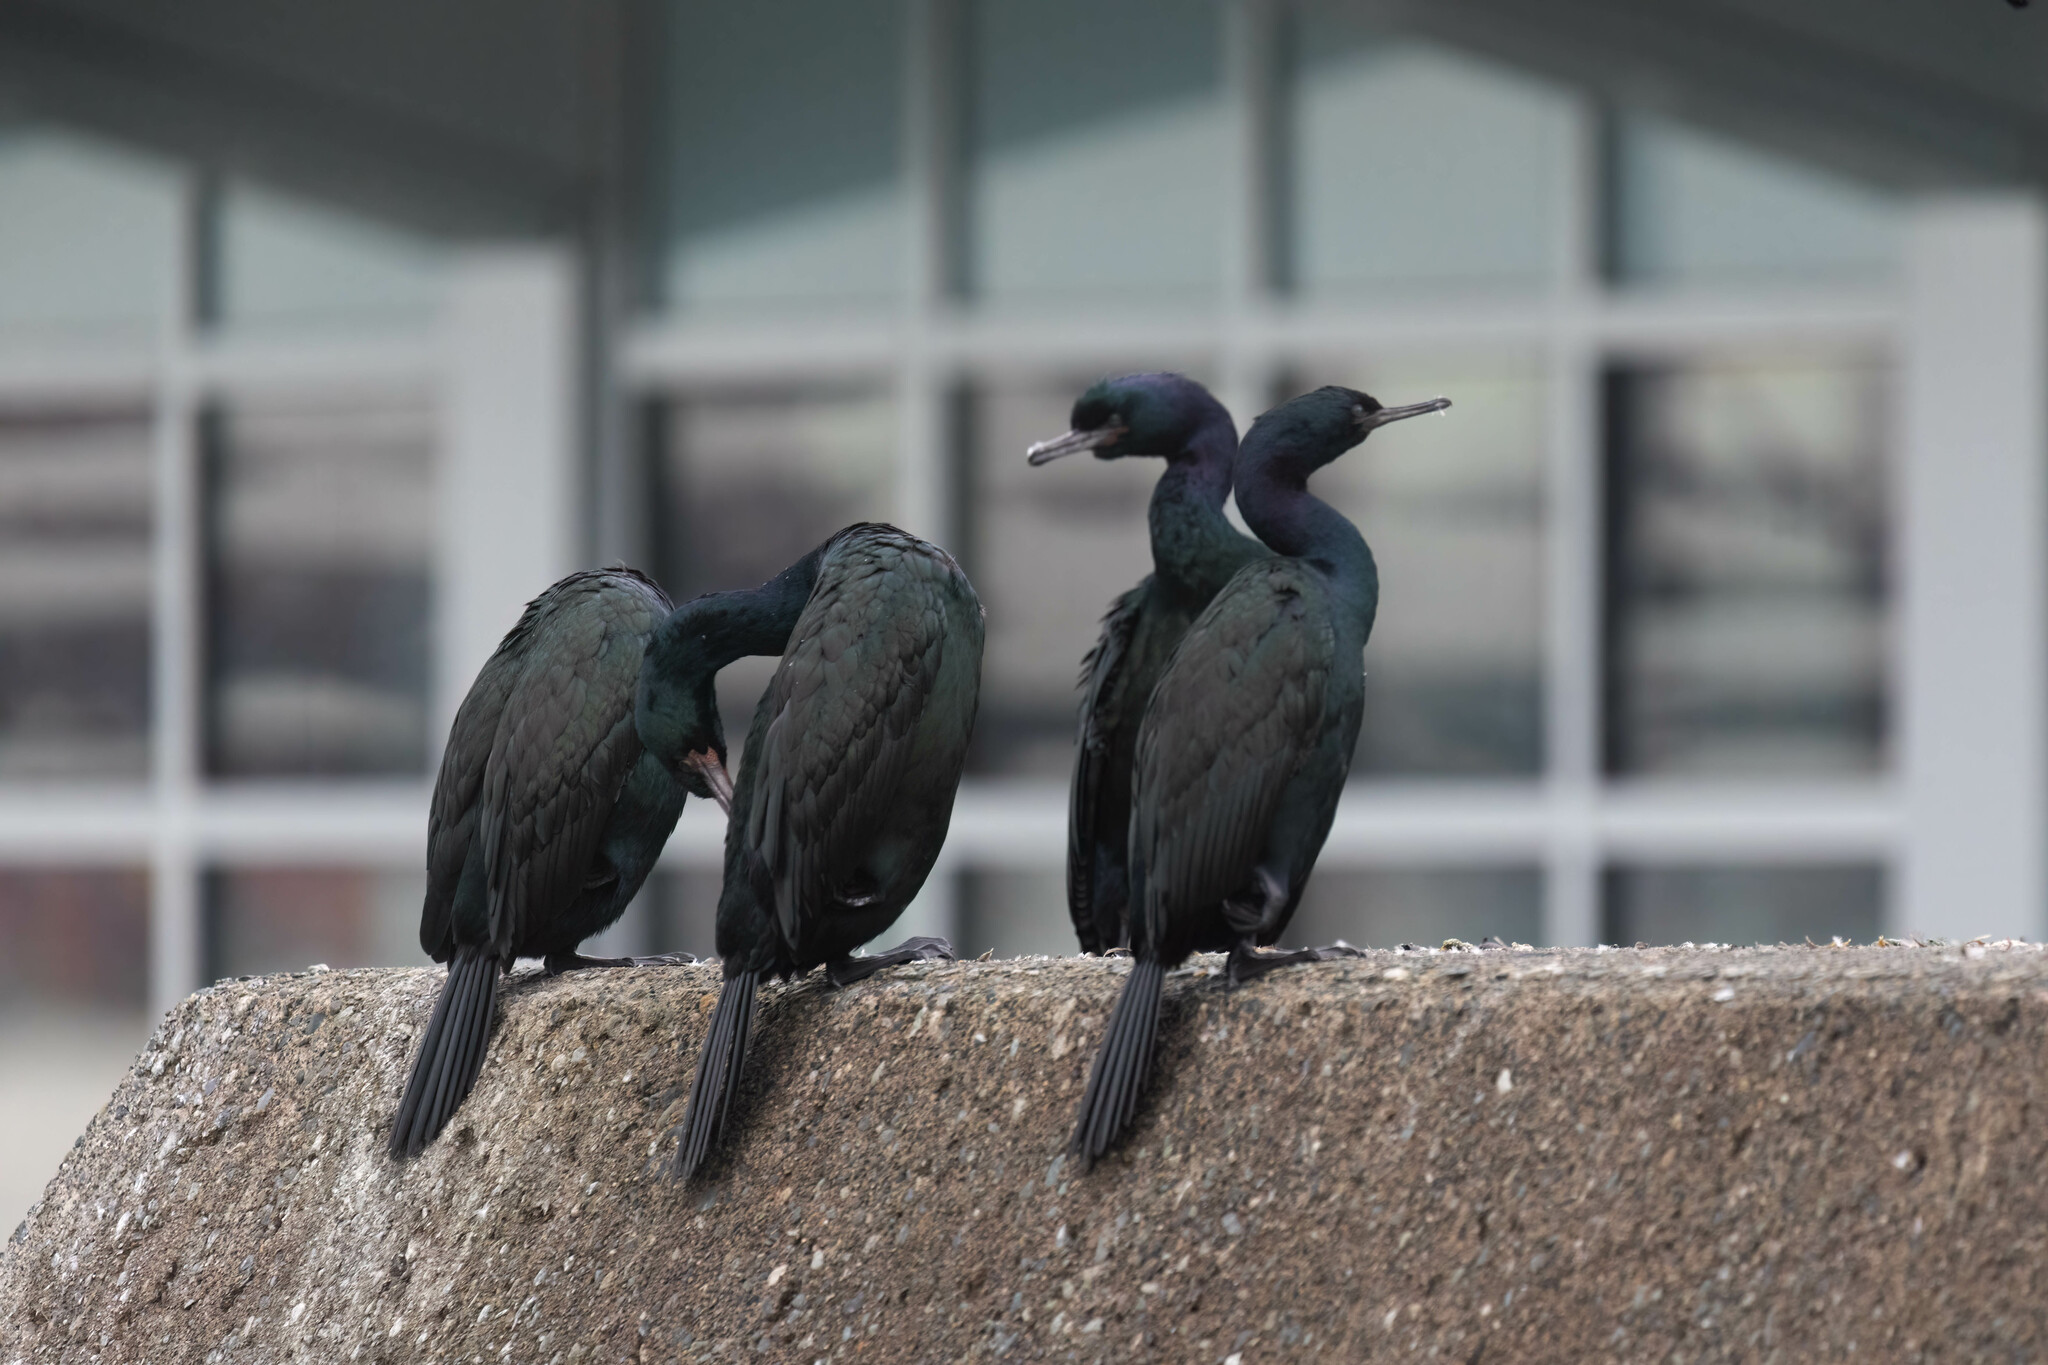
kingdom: Animalia
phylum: Chordata
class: Aves
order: Suliformes
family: Phalacrocoracidae
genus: Phalacrocorax
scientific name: Phalacrocorax pelagicus
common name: Pelagic cormorant
